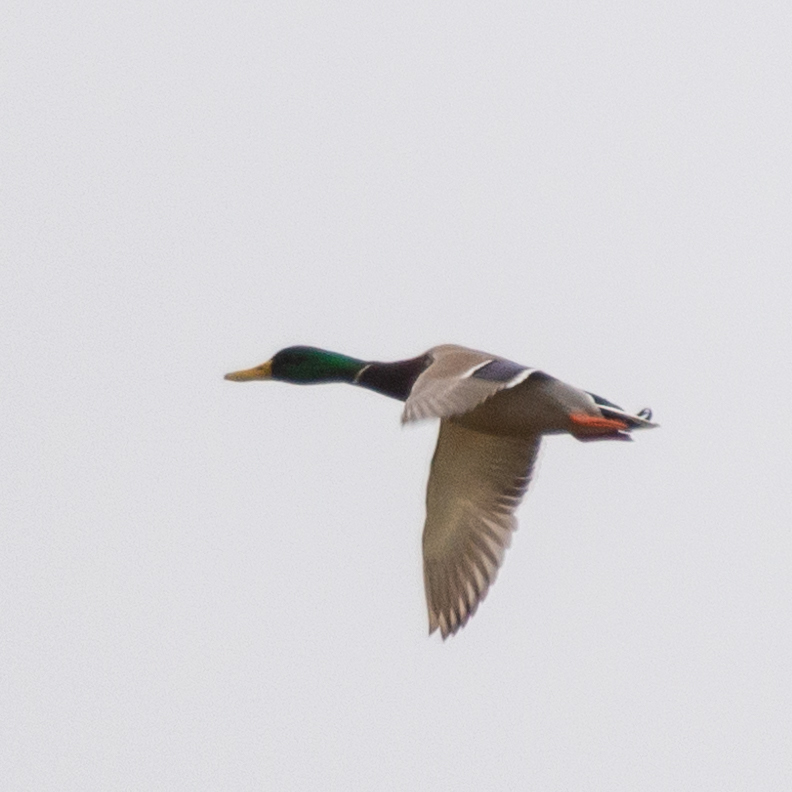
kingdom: Animalia
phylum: Chordata
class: Aves
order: Anseriformes
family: Anatidae
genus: Anas
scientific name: Anas platyrhynchos
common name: Mallard
